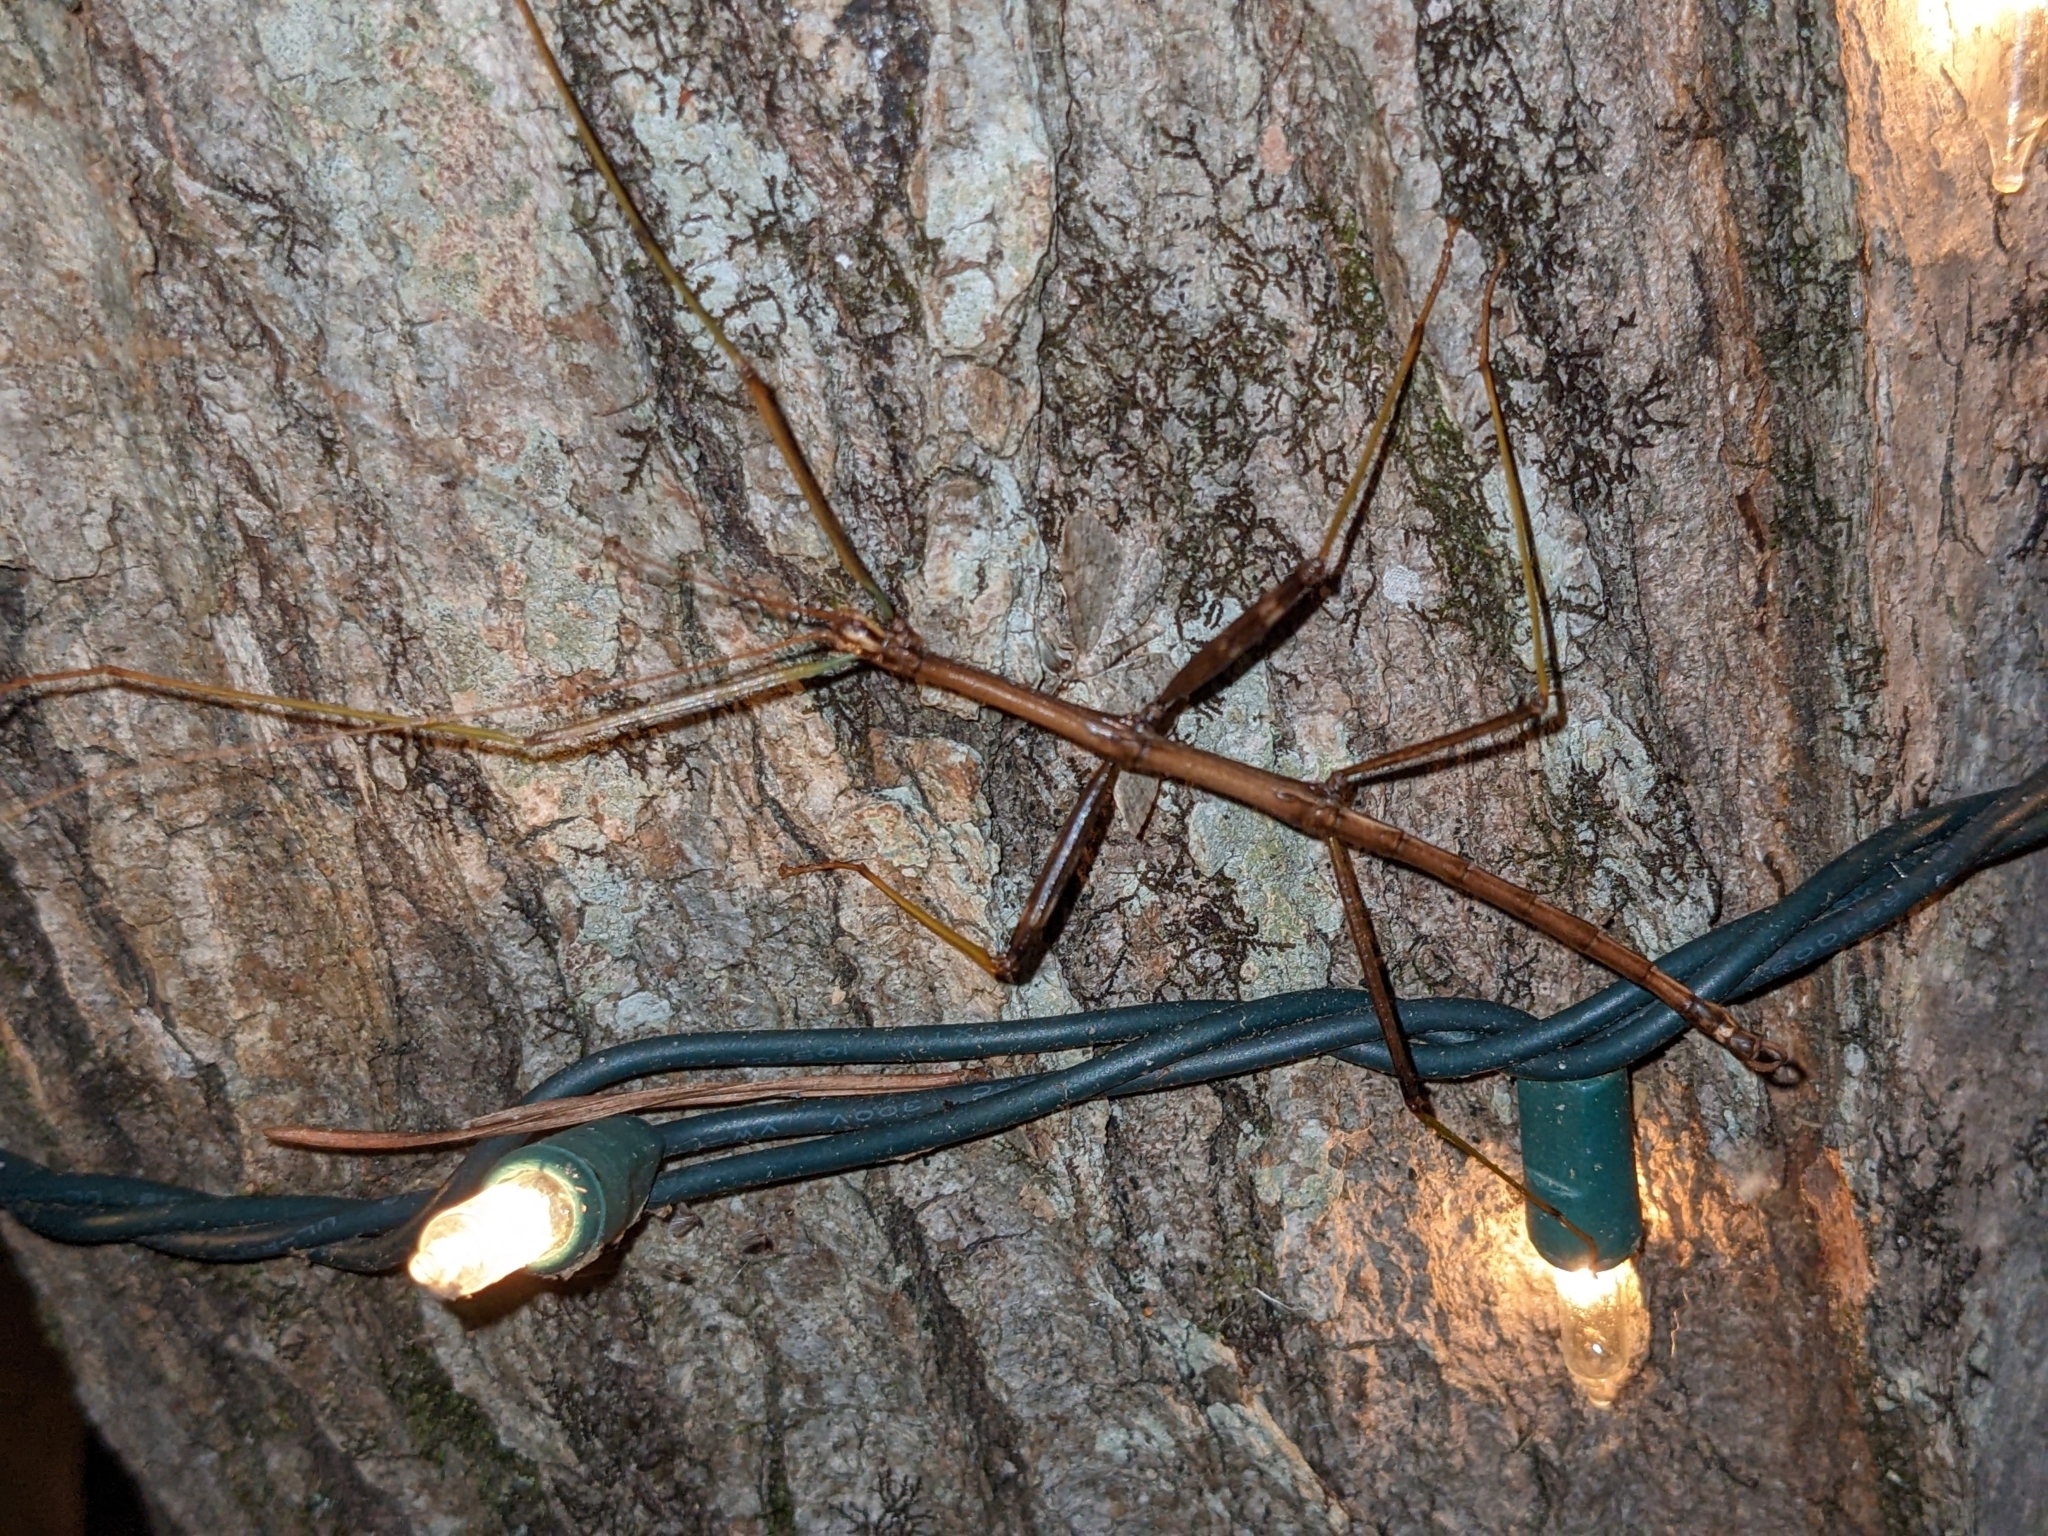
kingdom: Animalia
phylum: Arthropoda
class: Insecta
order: Phasmida
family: Diapheromeridae
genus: Diapheromera
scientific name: Diapheromera femorata
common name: Common american walkingstick
